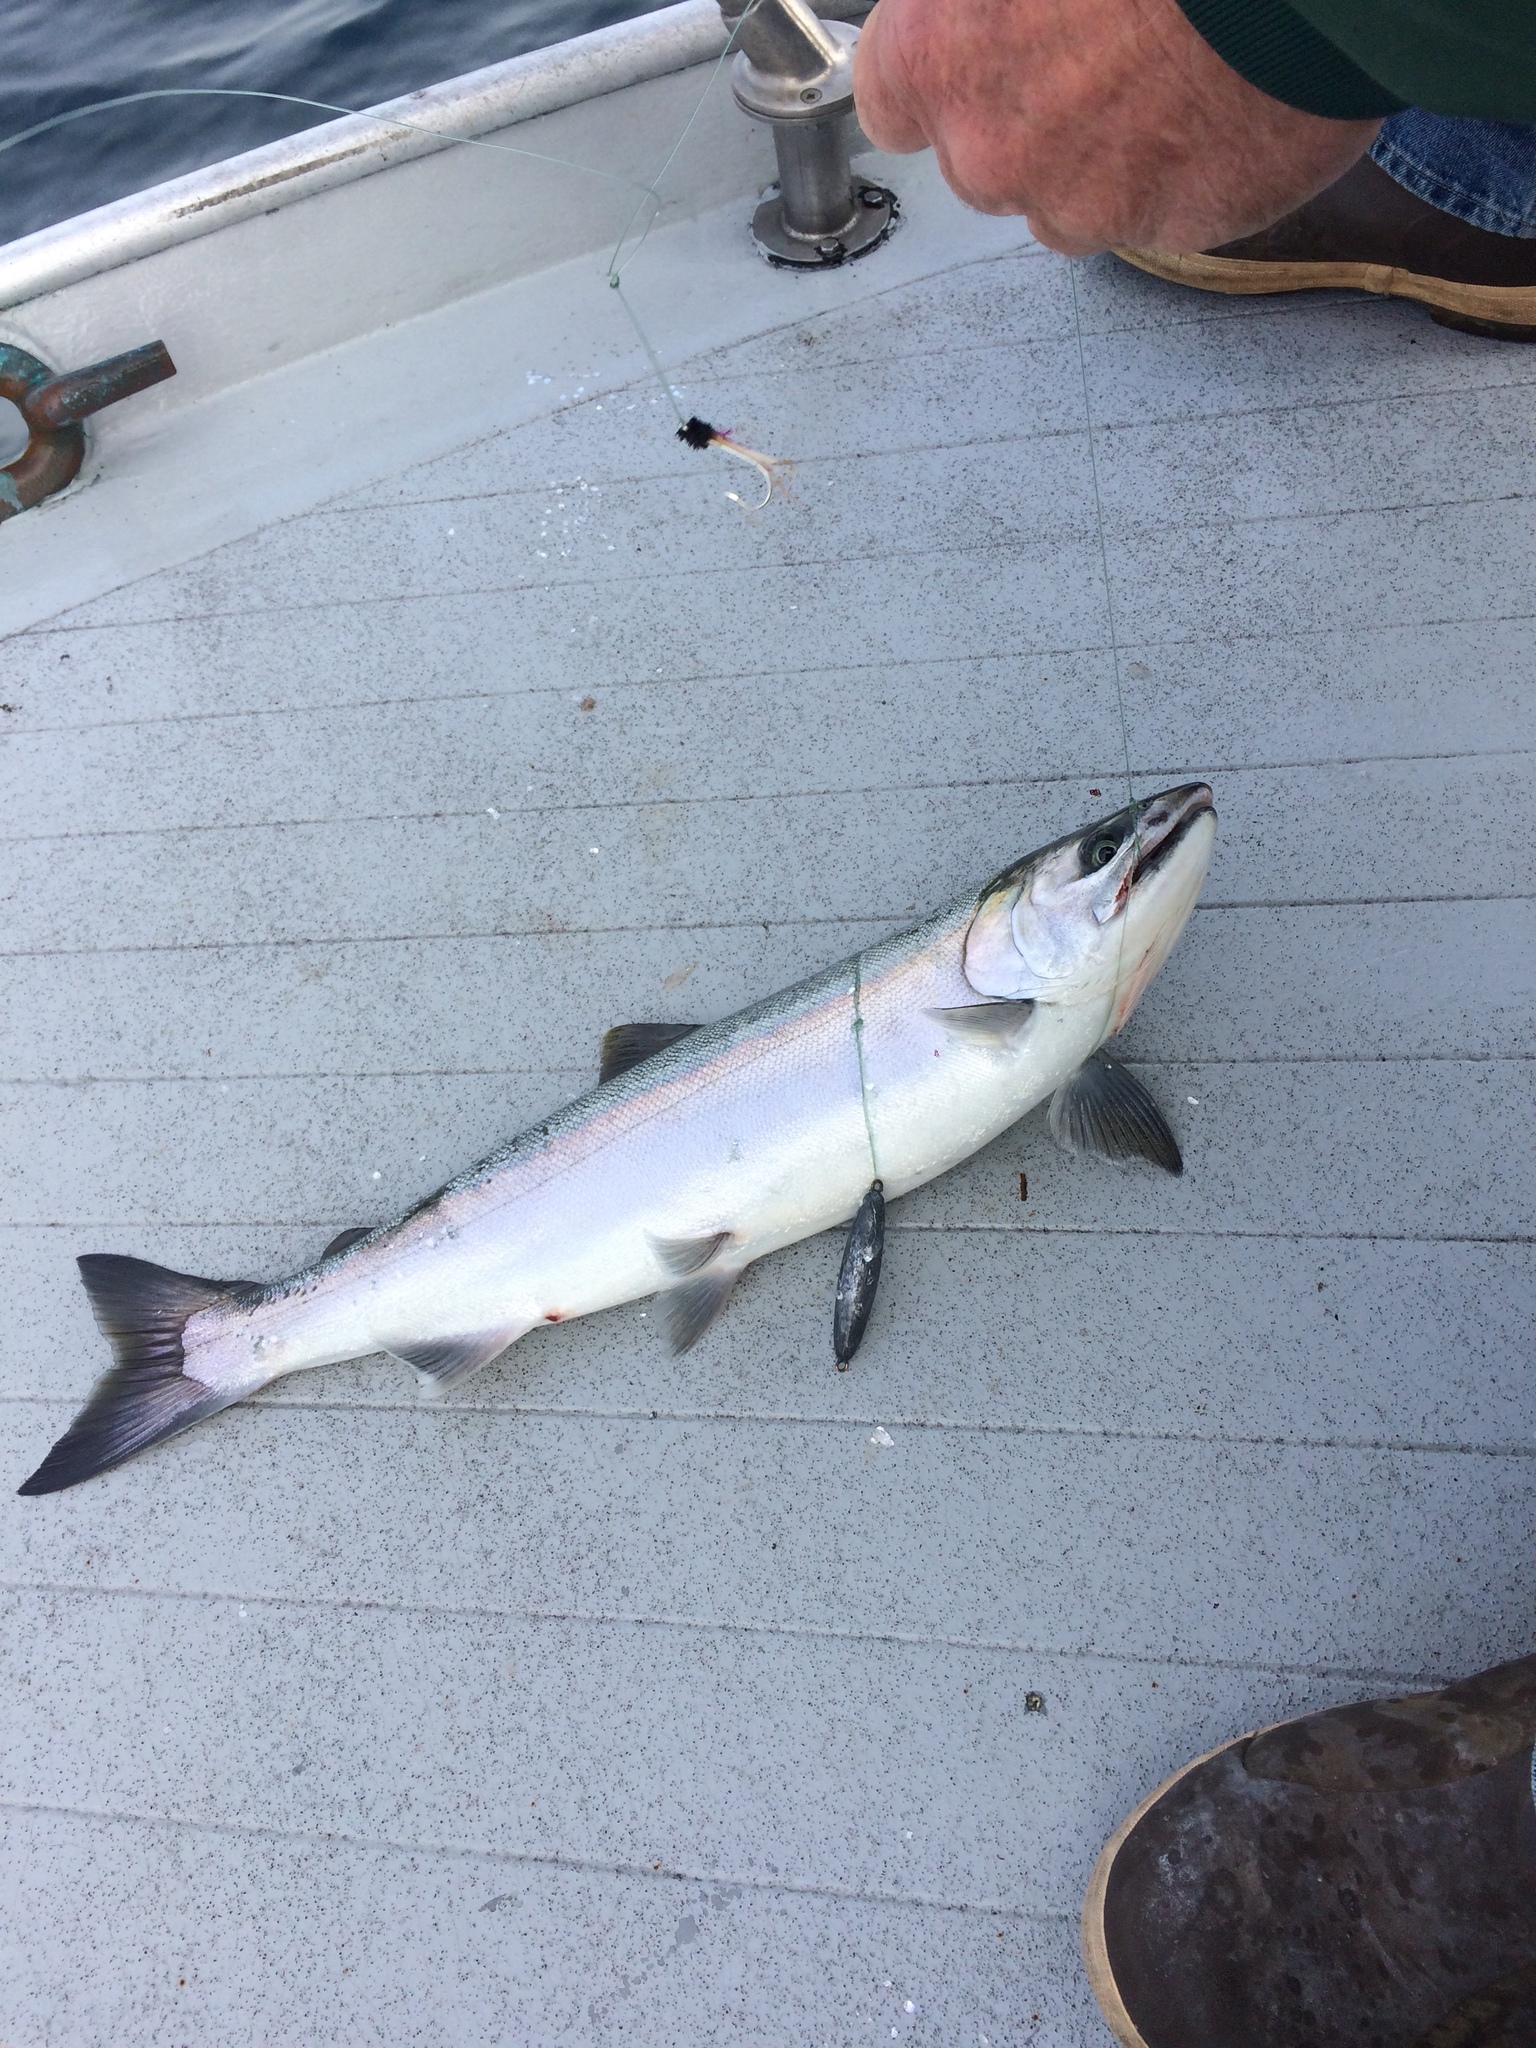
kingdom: Animalia
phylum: Chordata
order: Salmoniformes
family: Salmonidae
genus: Oncorhynchus
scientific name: Oncorhynchus kisutch
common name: Coho salmon
